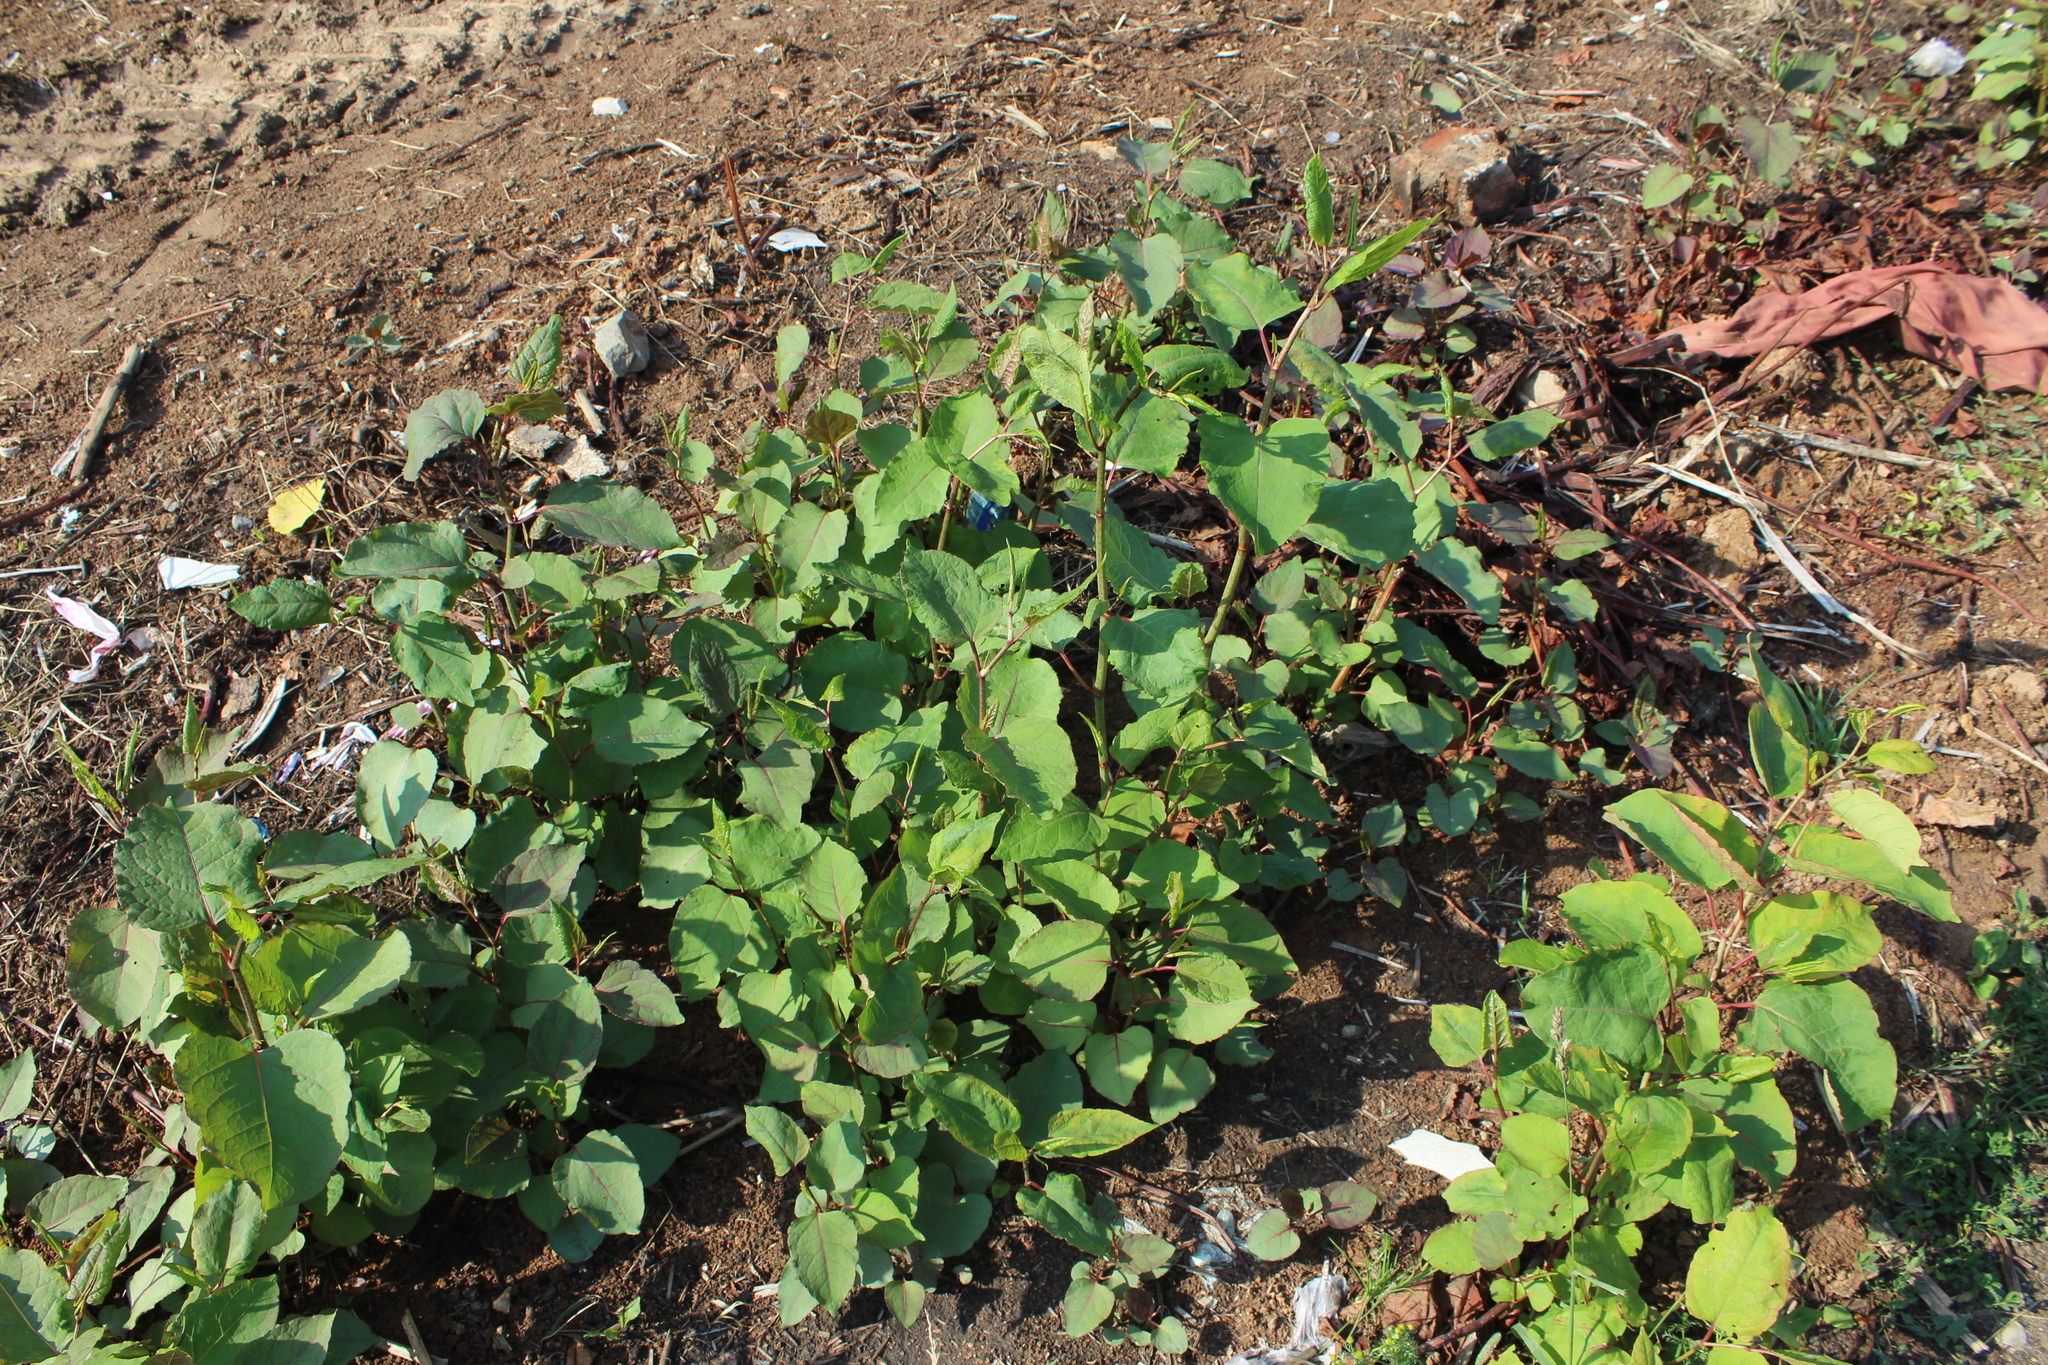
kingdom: Plantae
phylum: Tracheophyta
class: Magnoliopsida
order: Caryophyllales
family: Polygonaceae
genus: Reynoutria
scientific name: Reynoutria bohemica
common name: Bohemian knotweed
